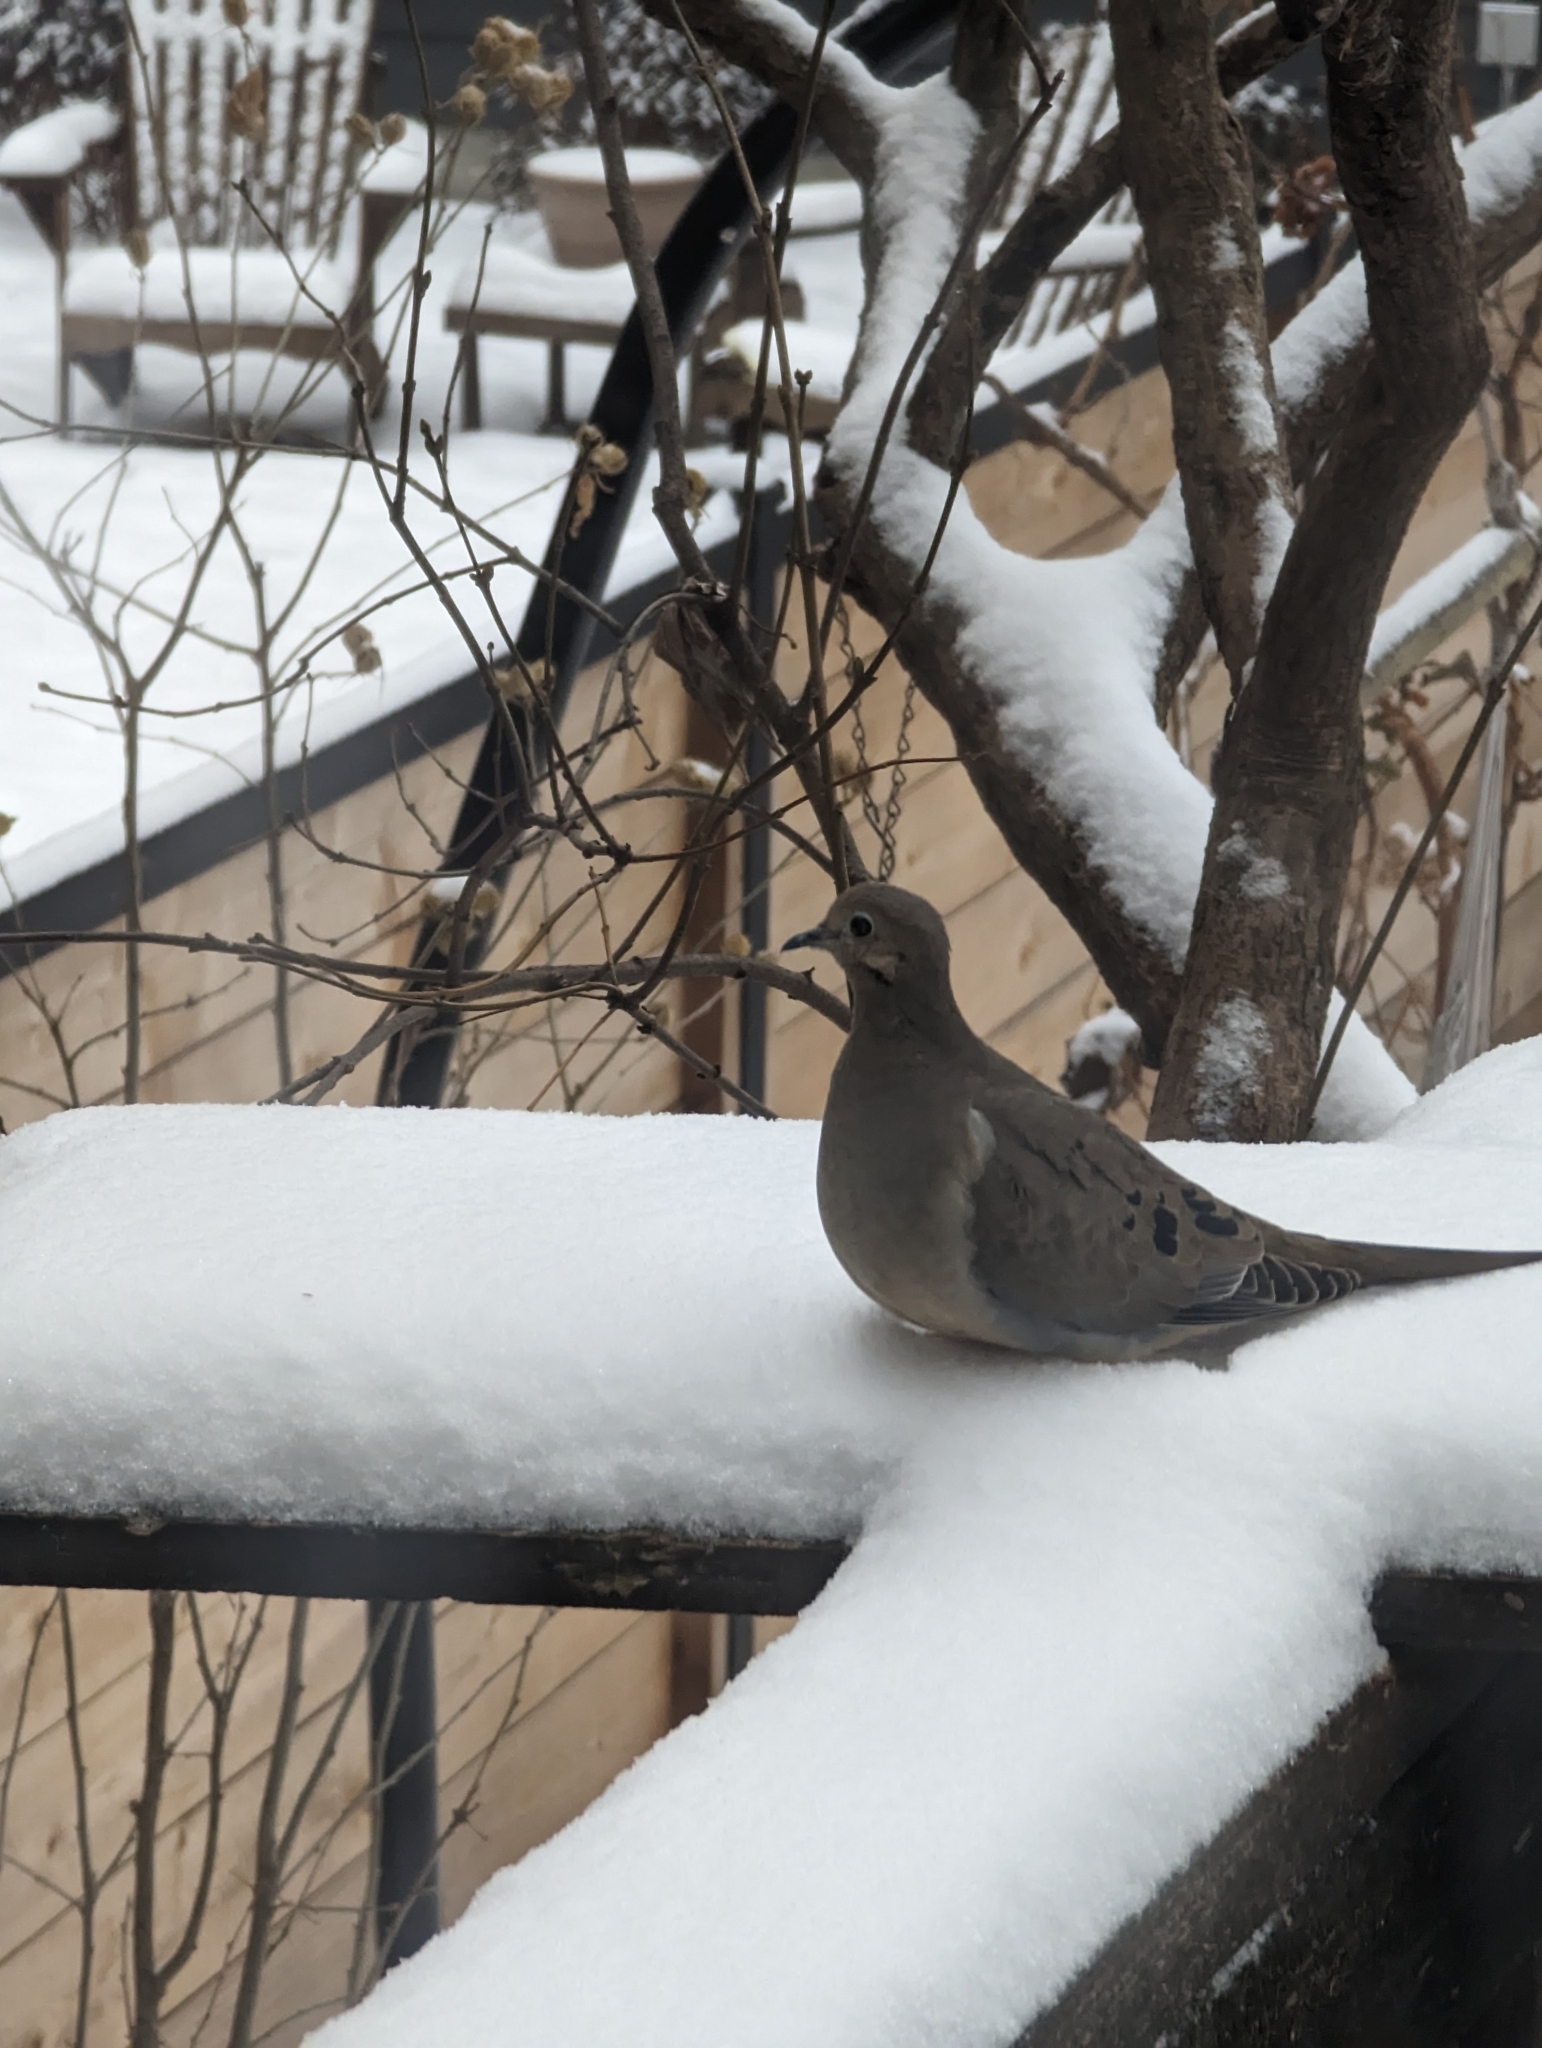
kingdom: Animalia
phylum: Chordata
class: Aves
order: Columbiformes
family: Columbidae
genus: Zenaida
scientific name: Zenaida macroura
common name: Mourning dove
